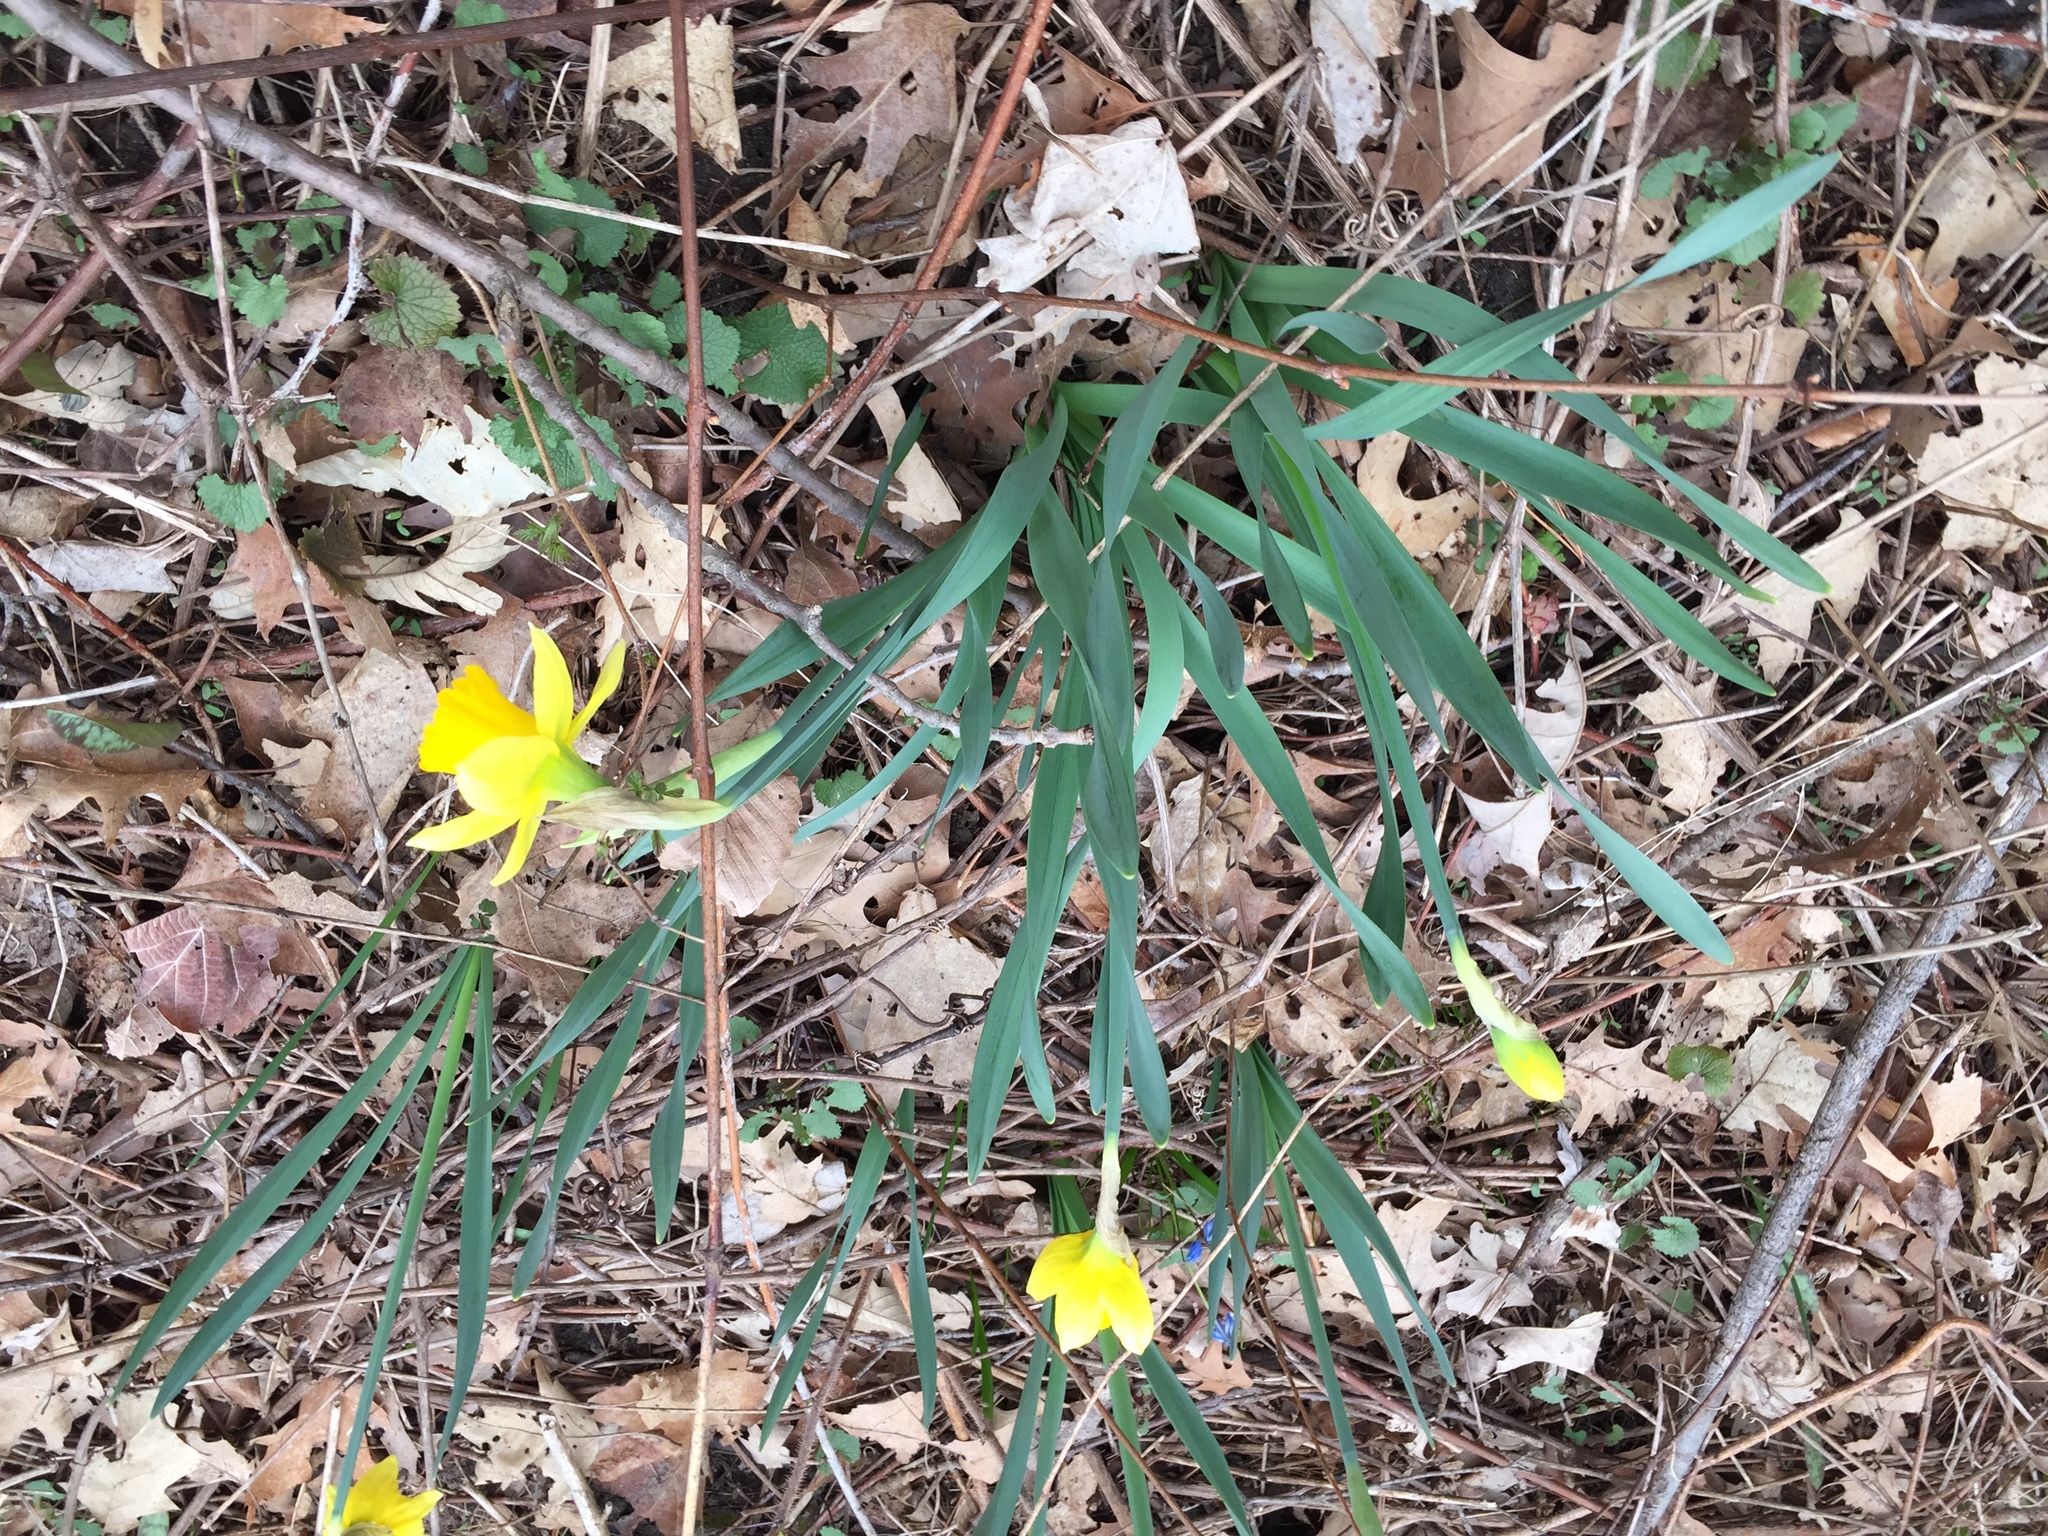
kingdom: Plantae
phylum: Tracheophyta
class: Liliopsida
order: Asparagales
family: Amaryllidaceae
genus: Narcissus
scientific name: Narcissus pseudonarcissus
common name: Daffodil
